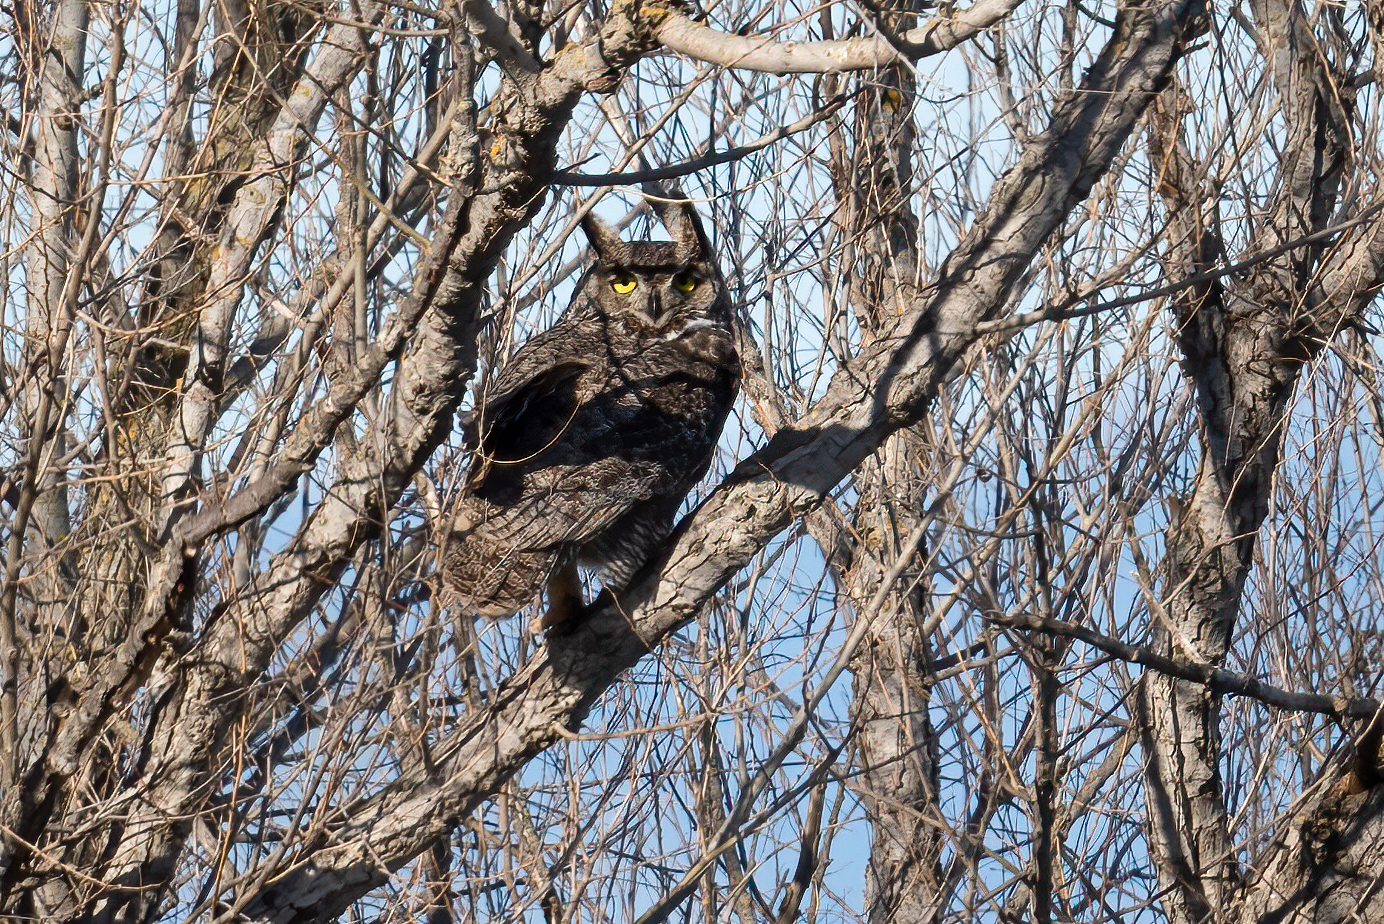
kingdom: Animalia
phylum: Chordata
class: Aves
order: Strigiformes
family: Strigidae
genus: Bubo
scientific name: Bubo virginianus
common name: Great horned owl
